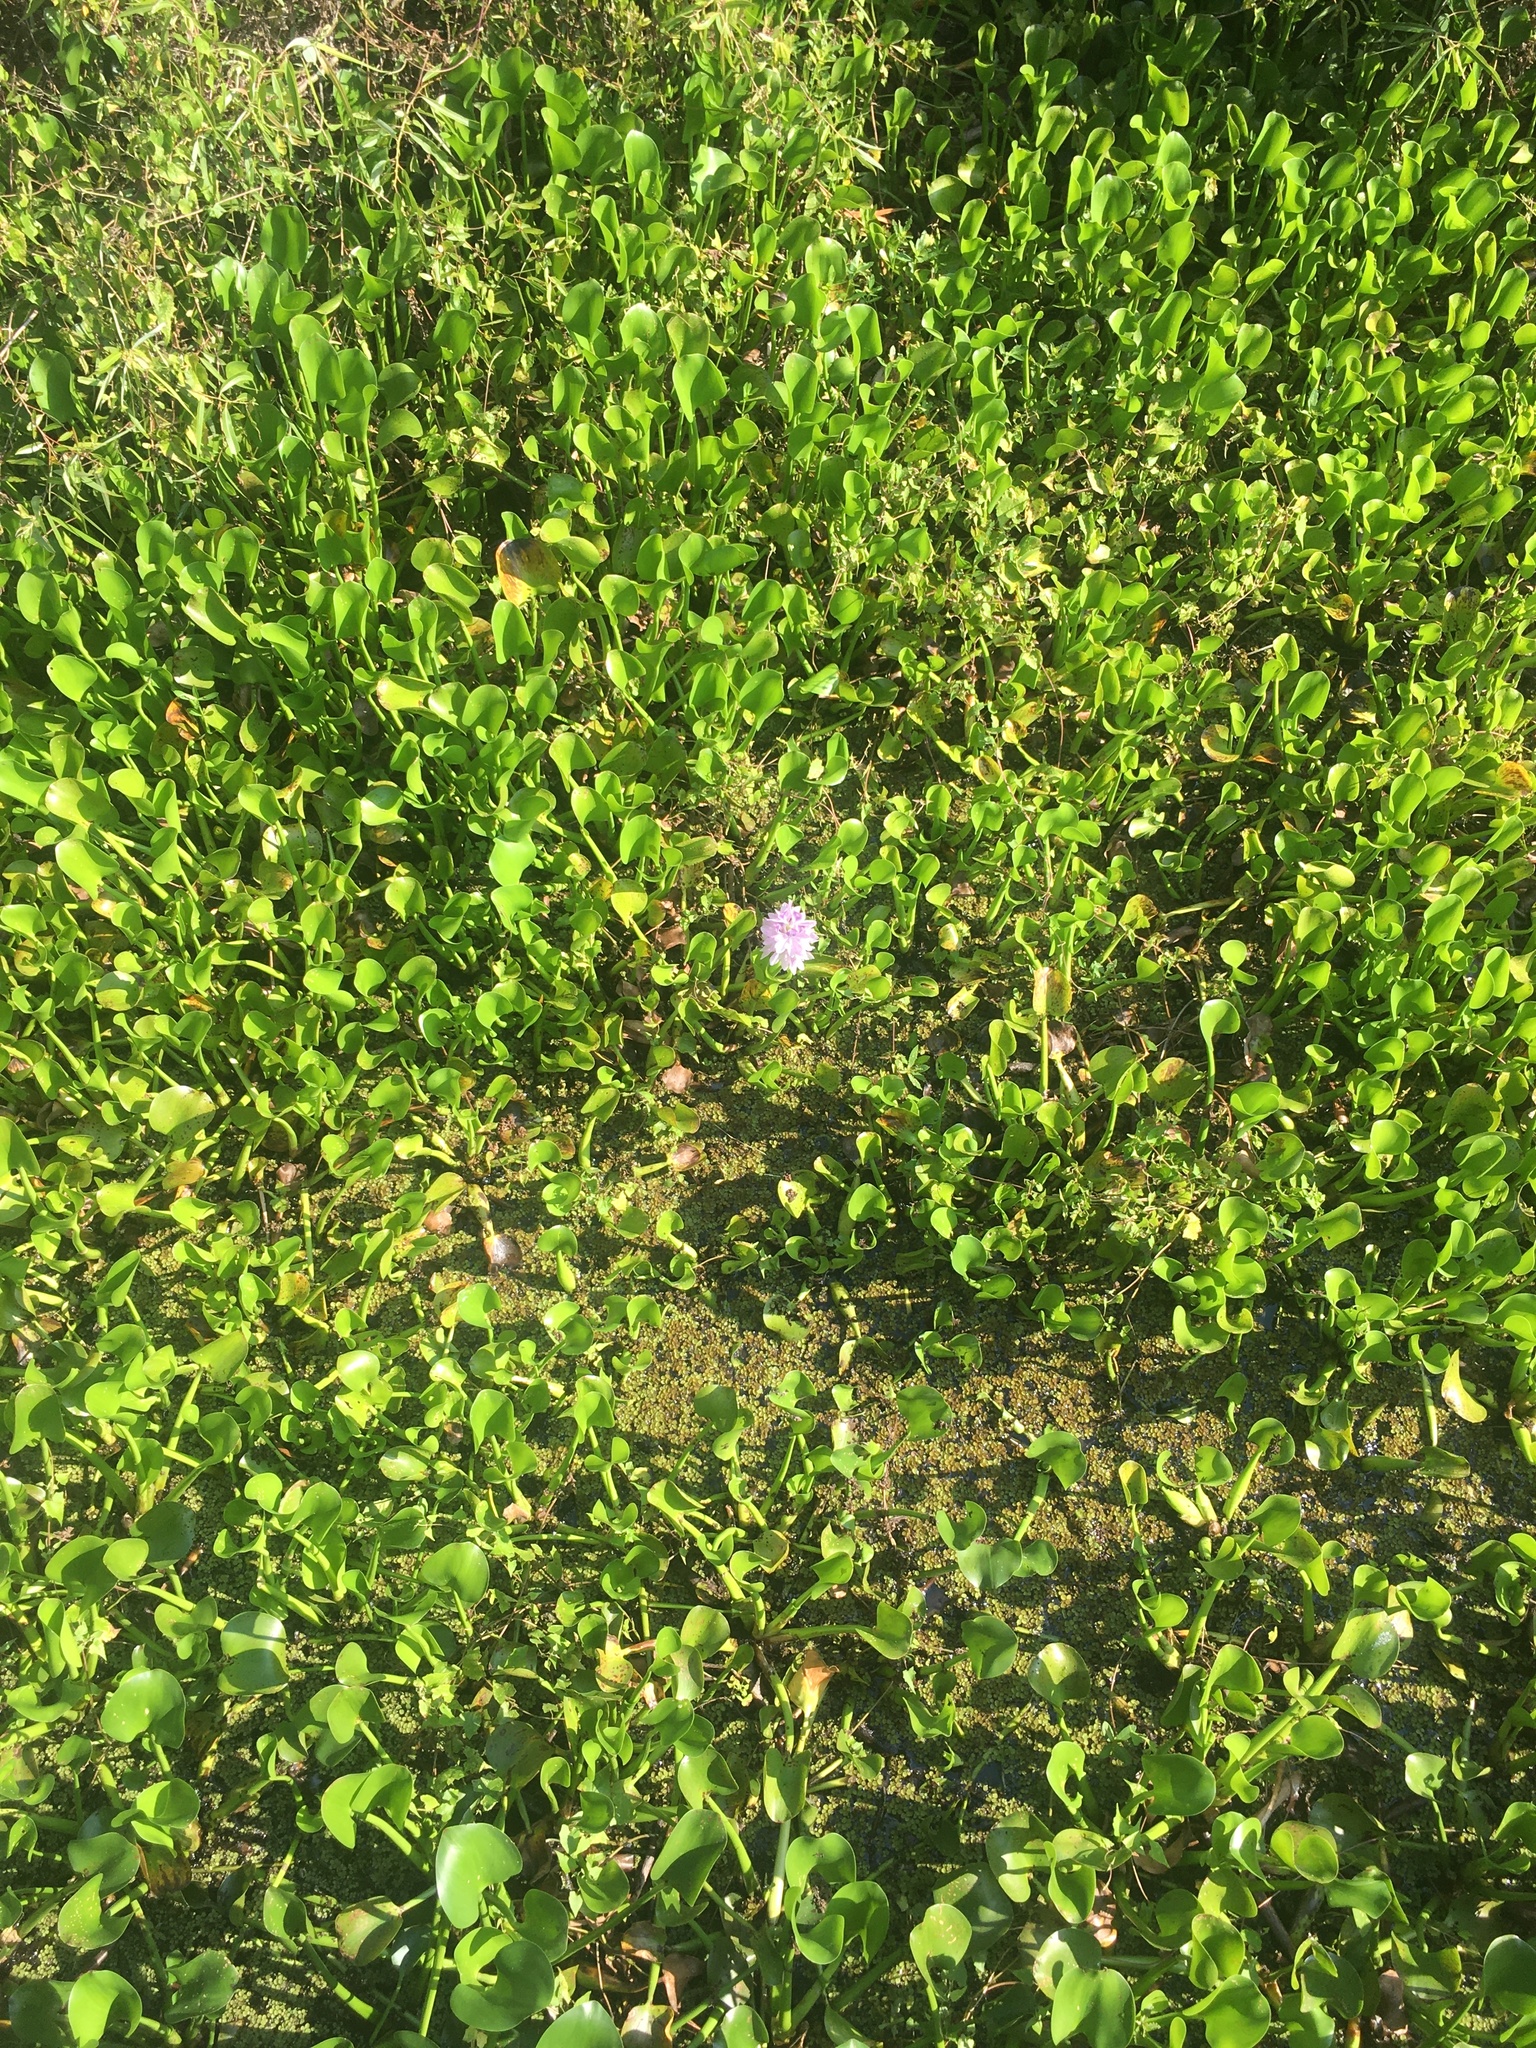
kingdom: Plantae
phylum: Tracheophyta
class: Liliopsida
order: Commelinales
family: Pontederiaceae
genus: Pontederia
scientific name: Pontederia crassipes
